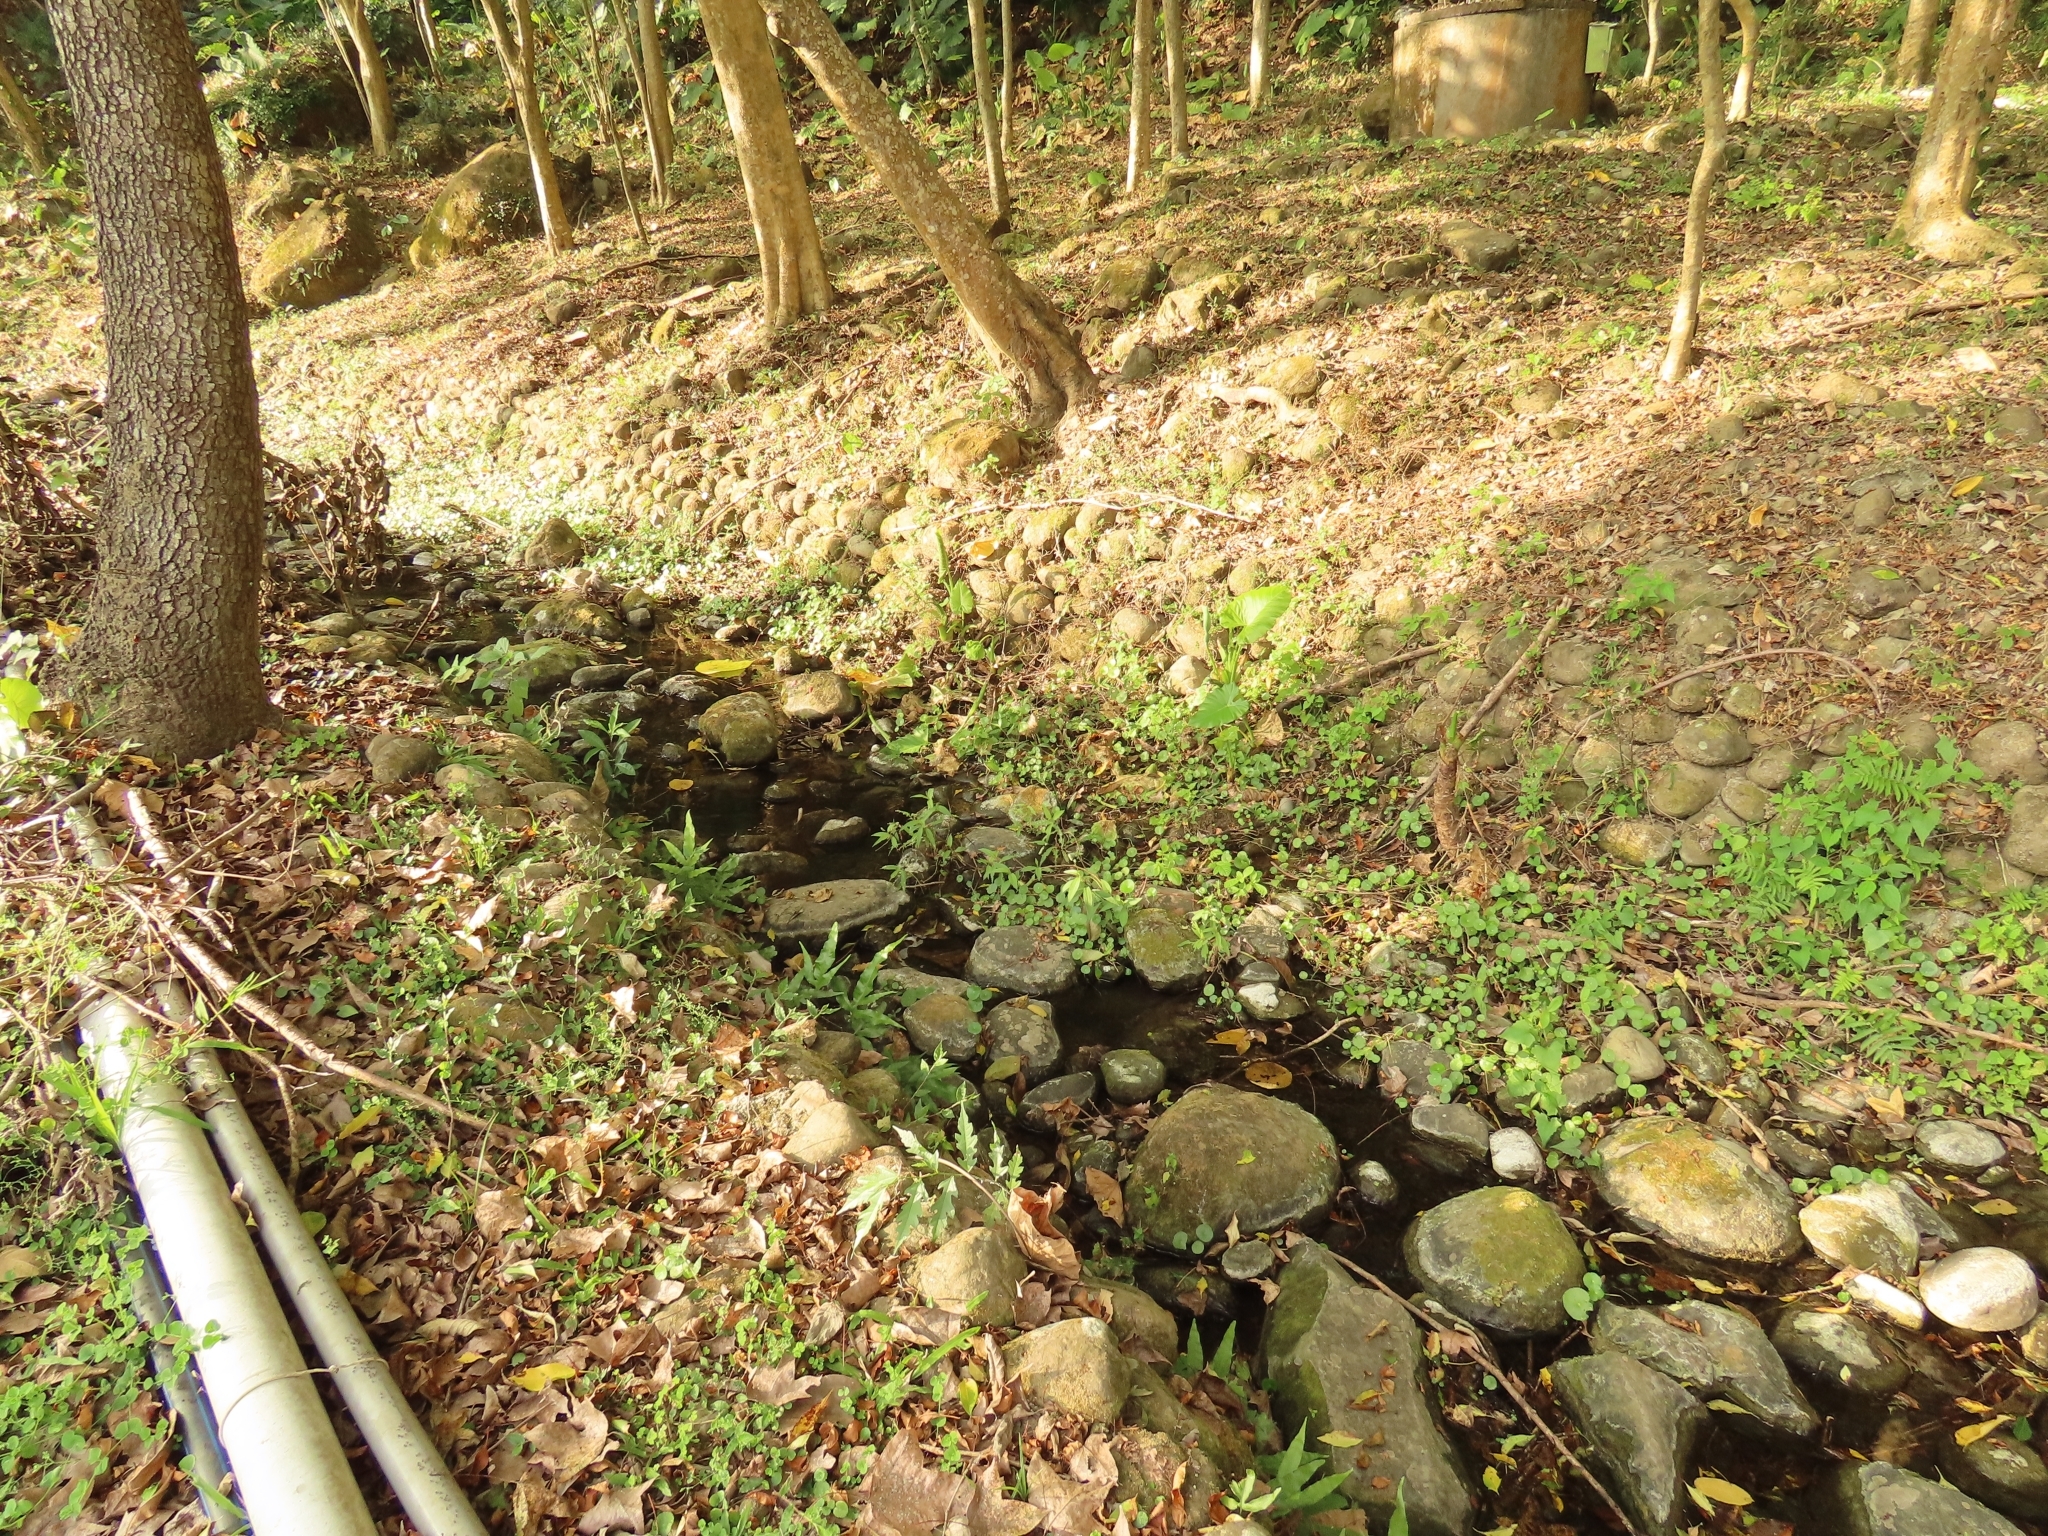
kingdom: Plantae
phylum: Tracheophyta
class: Polypodiopsida
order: Polypodiales
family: Polypodiaceae
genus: Leptochilus
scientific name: Leptochilus ellipticus
